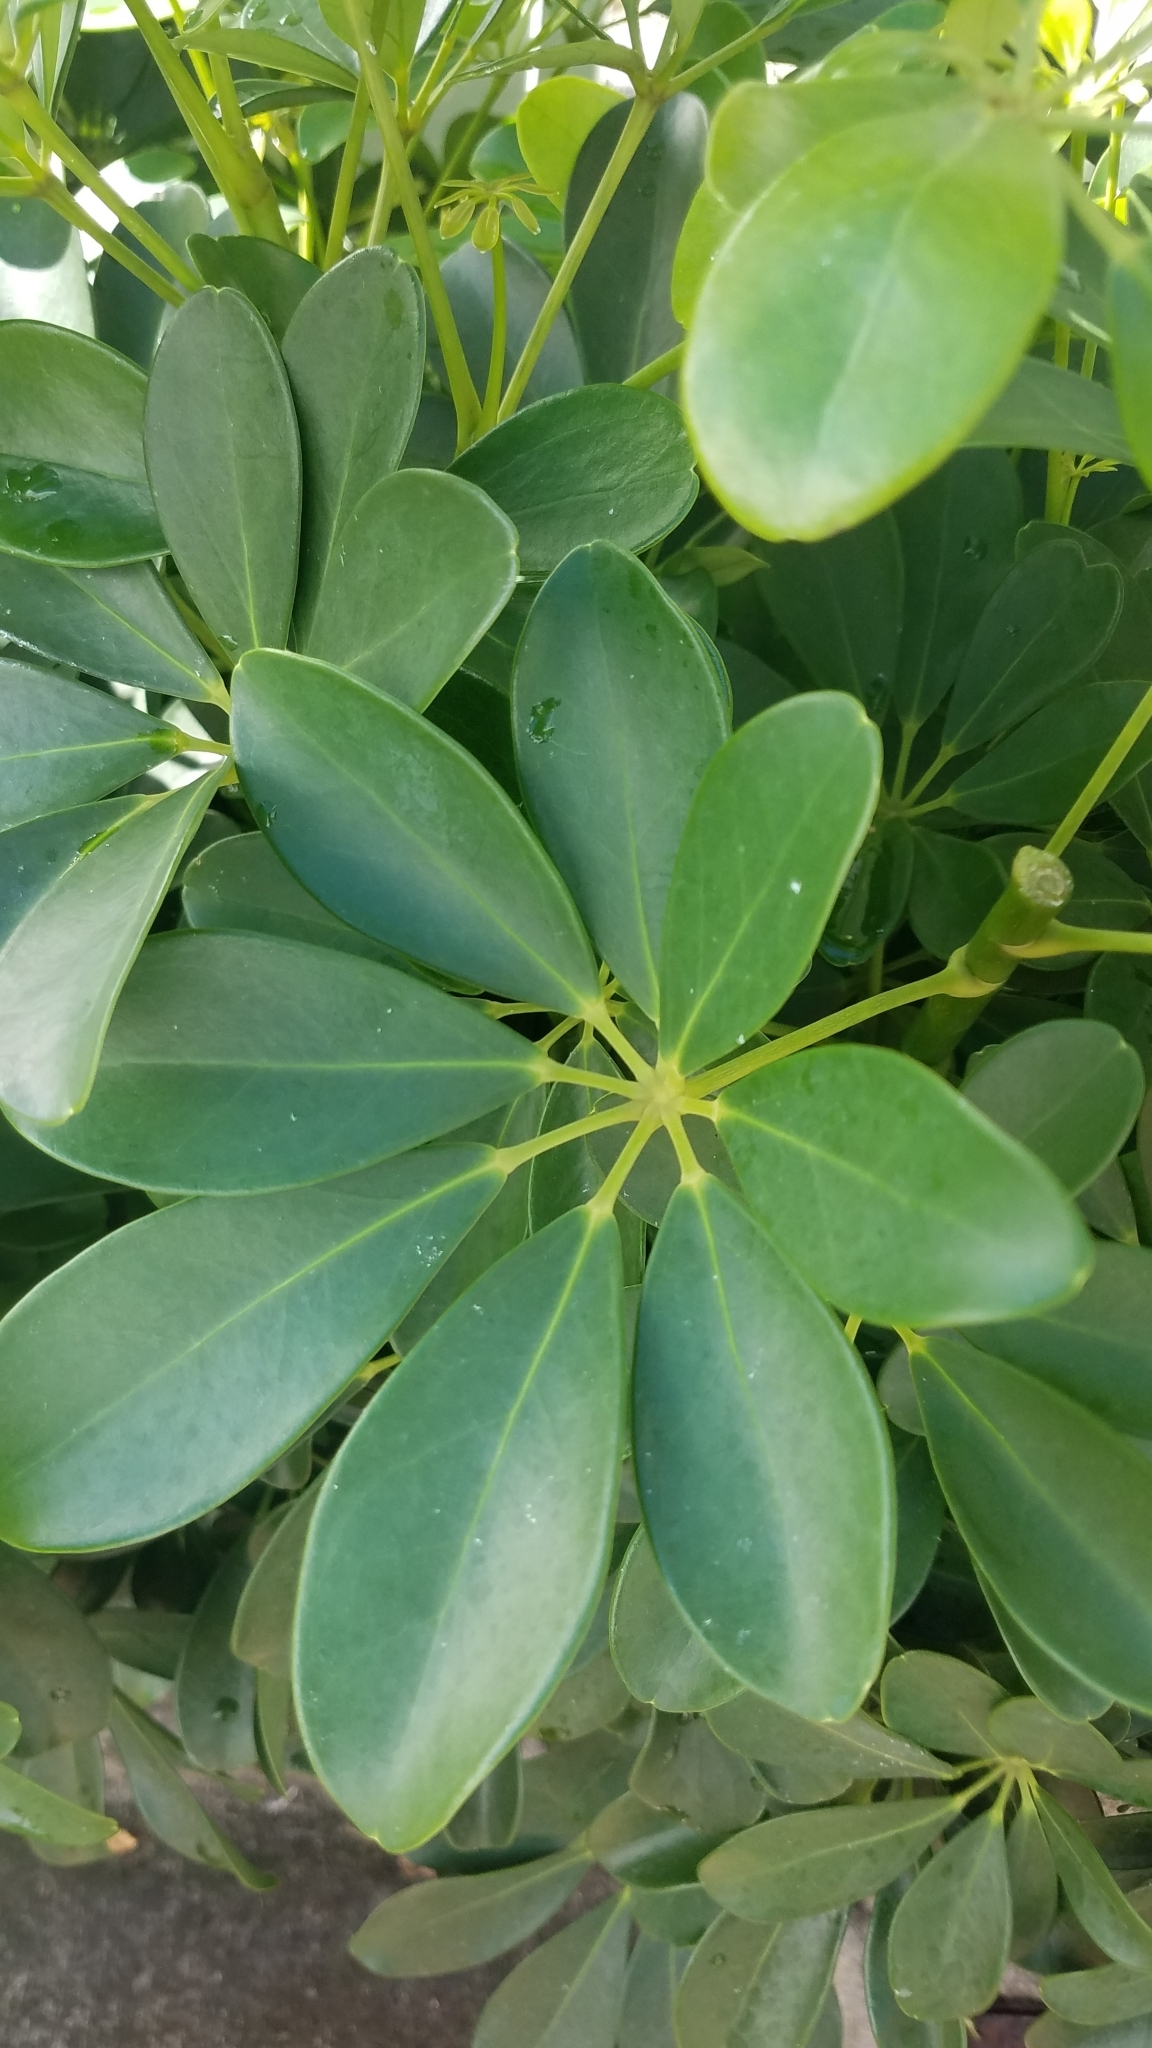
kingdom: Plantae
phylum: Tracheophyta
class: Magnoliopsida
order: Apiales
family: Araliaceae
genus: Heptapleurum
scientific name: Heptapleurum arboricola
